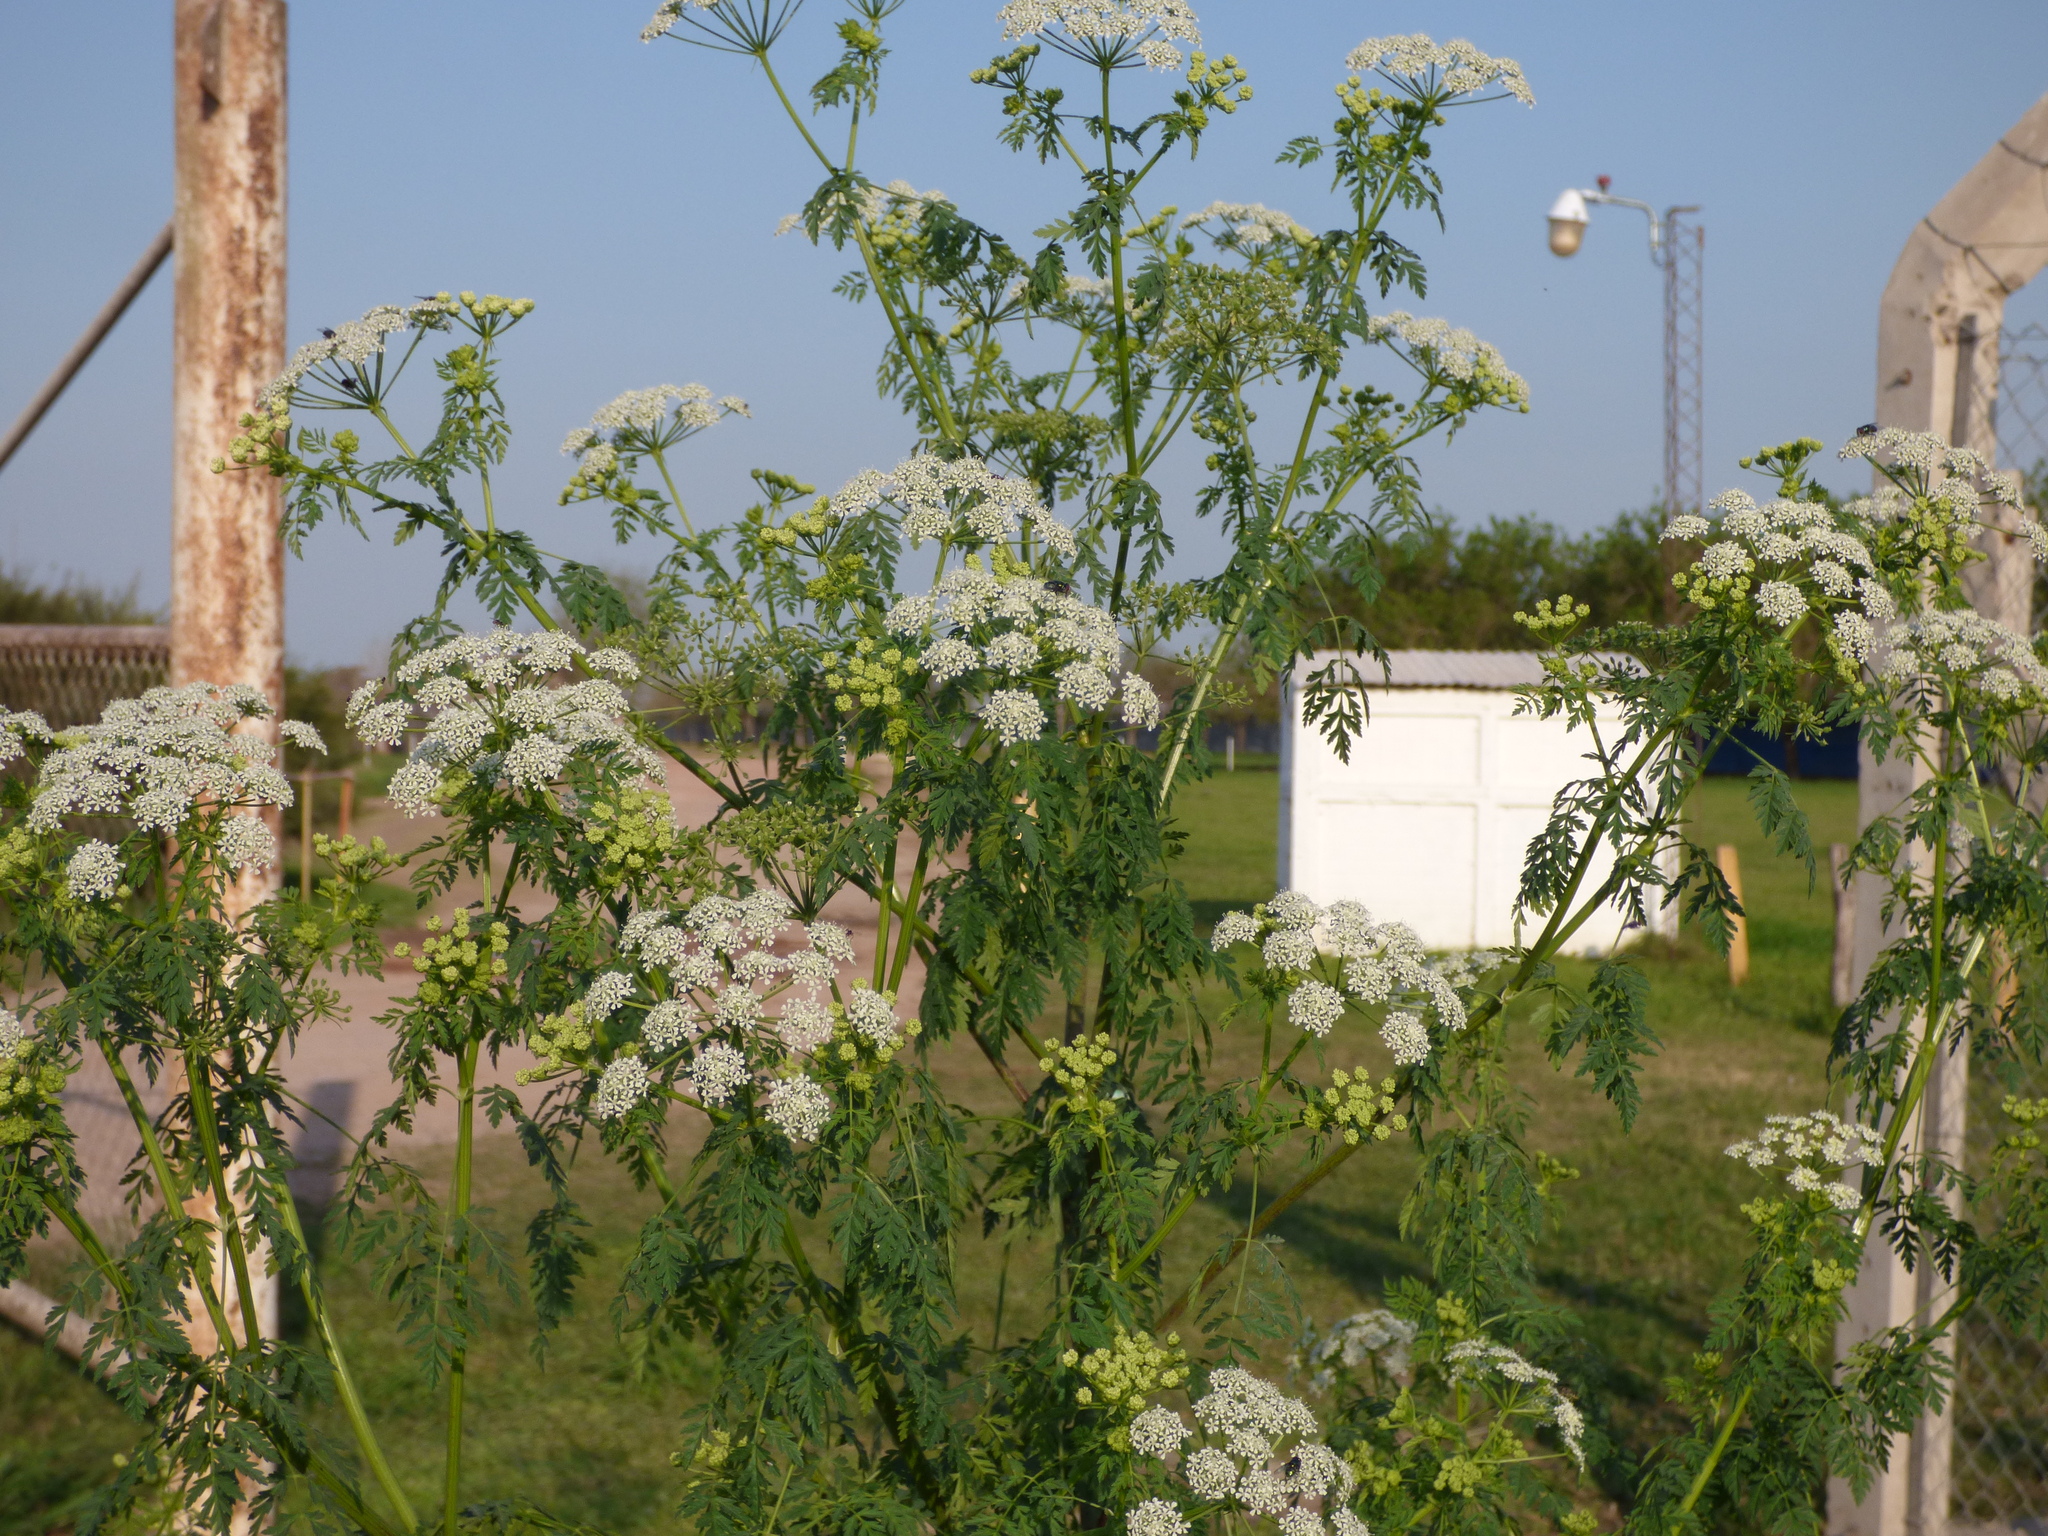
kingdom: Plantae
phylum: Tracheophyta
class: Magnoliopsida
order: Apiales
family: Apiaceae
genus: Conium
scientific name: Conium maculatum
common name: Hemlock
